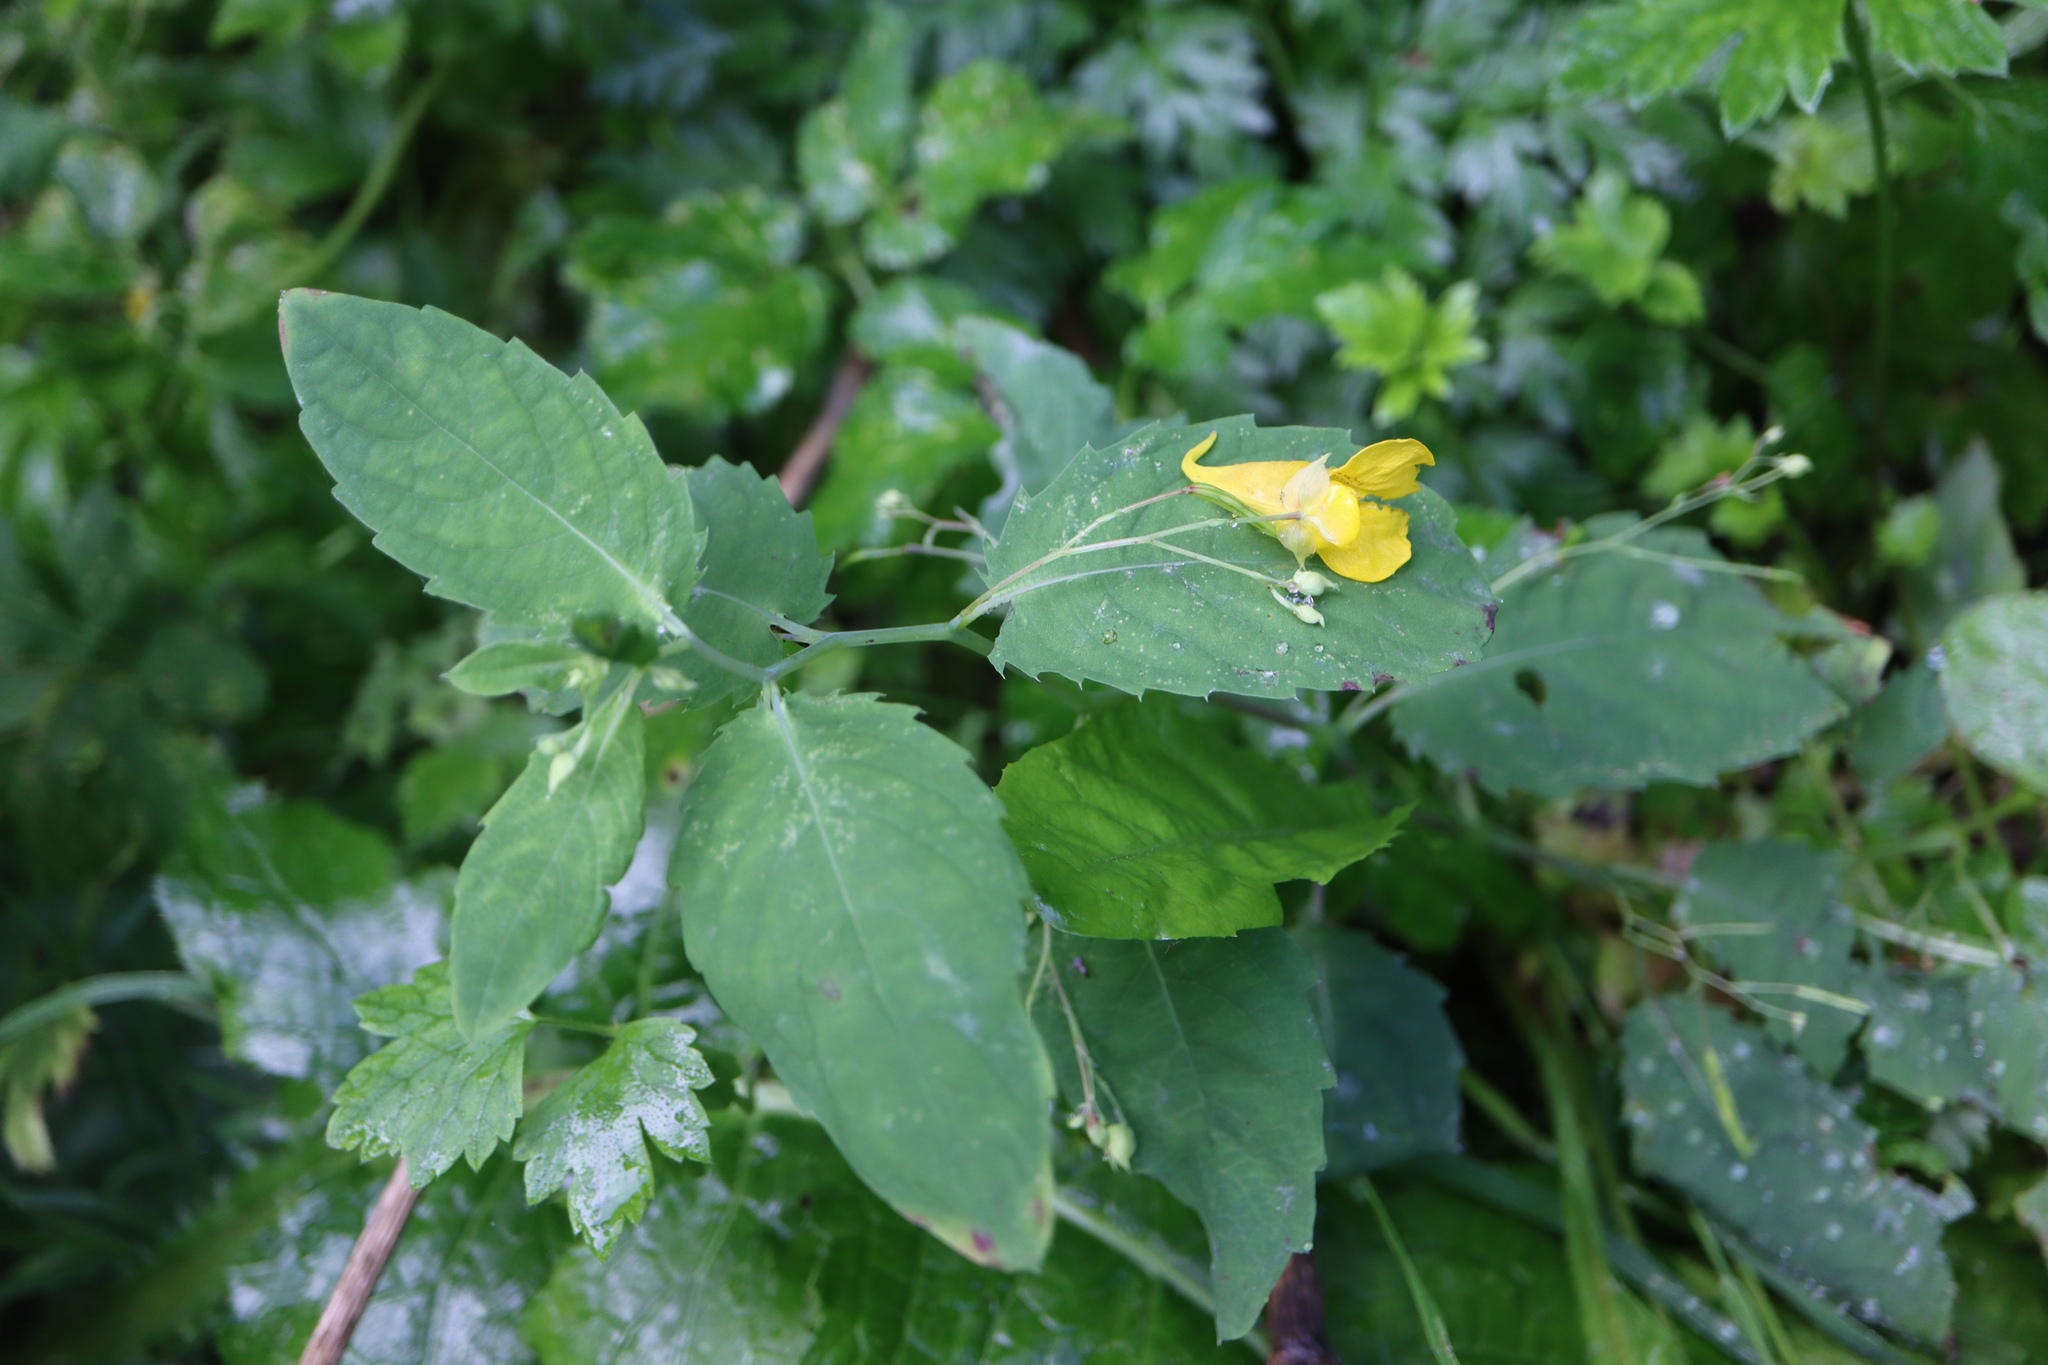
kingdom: Plantae
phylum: Tracheophyta
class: Magnoliopsida
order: Ericales
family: Balsaminaceae
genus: Impatiens
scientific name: Impatiens noli-tangere
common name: Touch-me-not balsam
